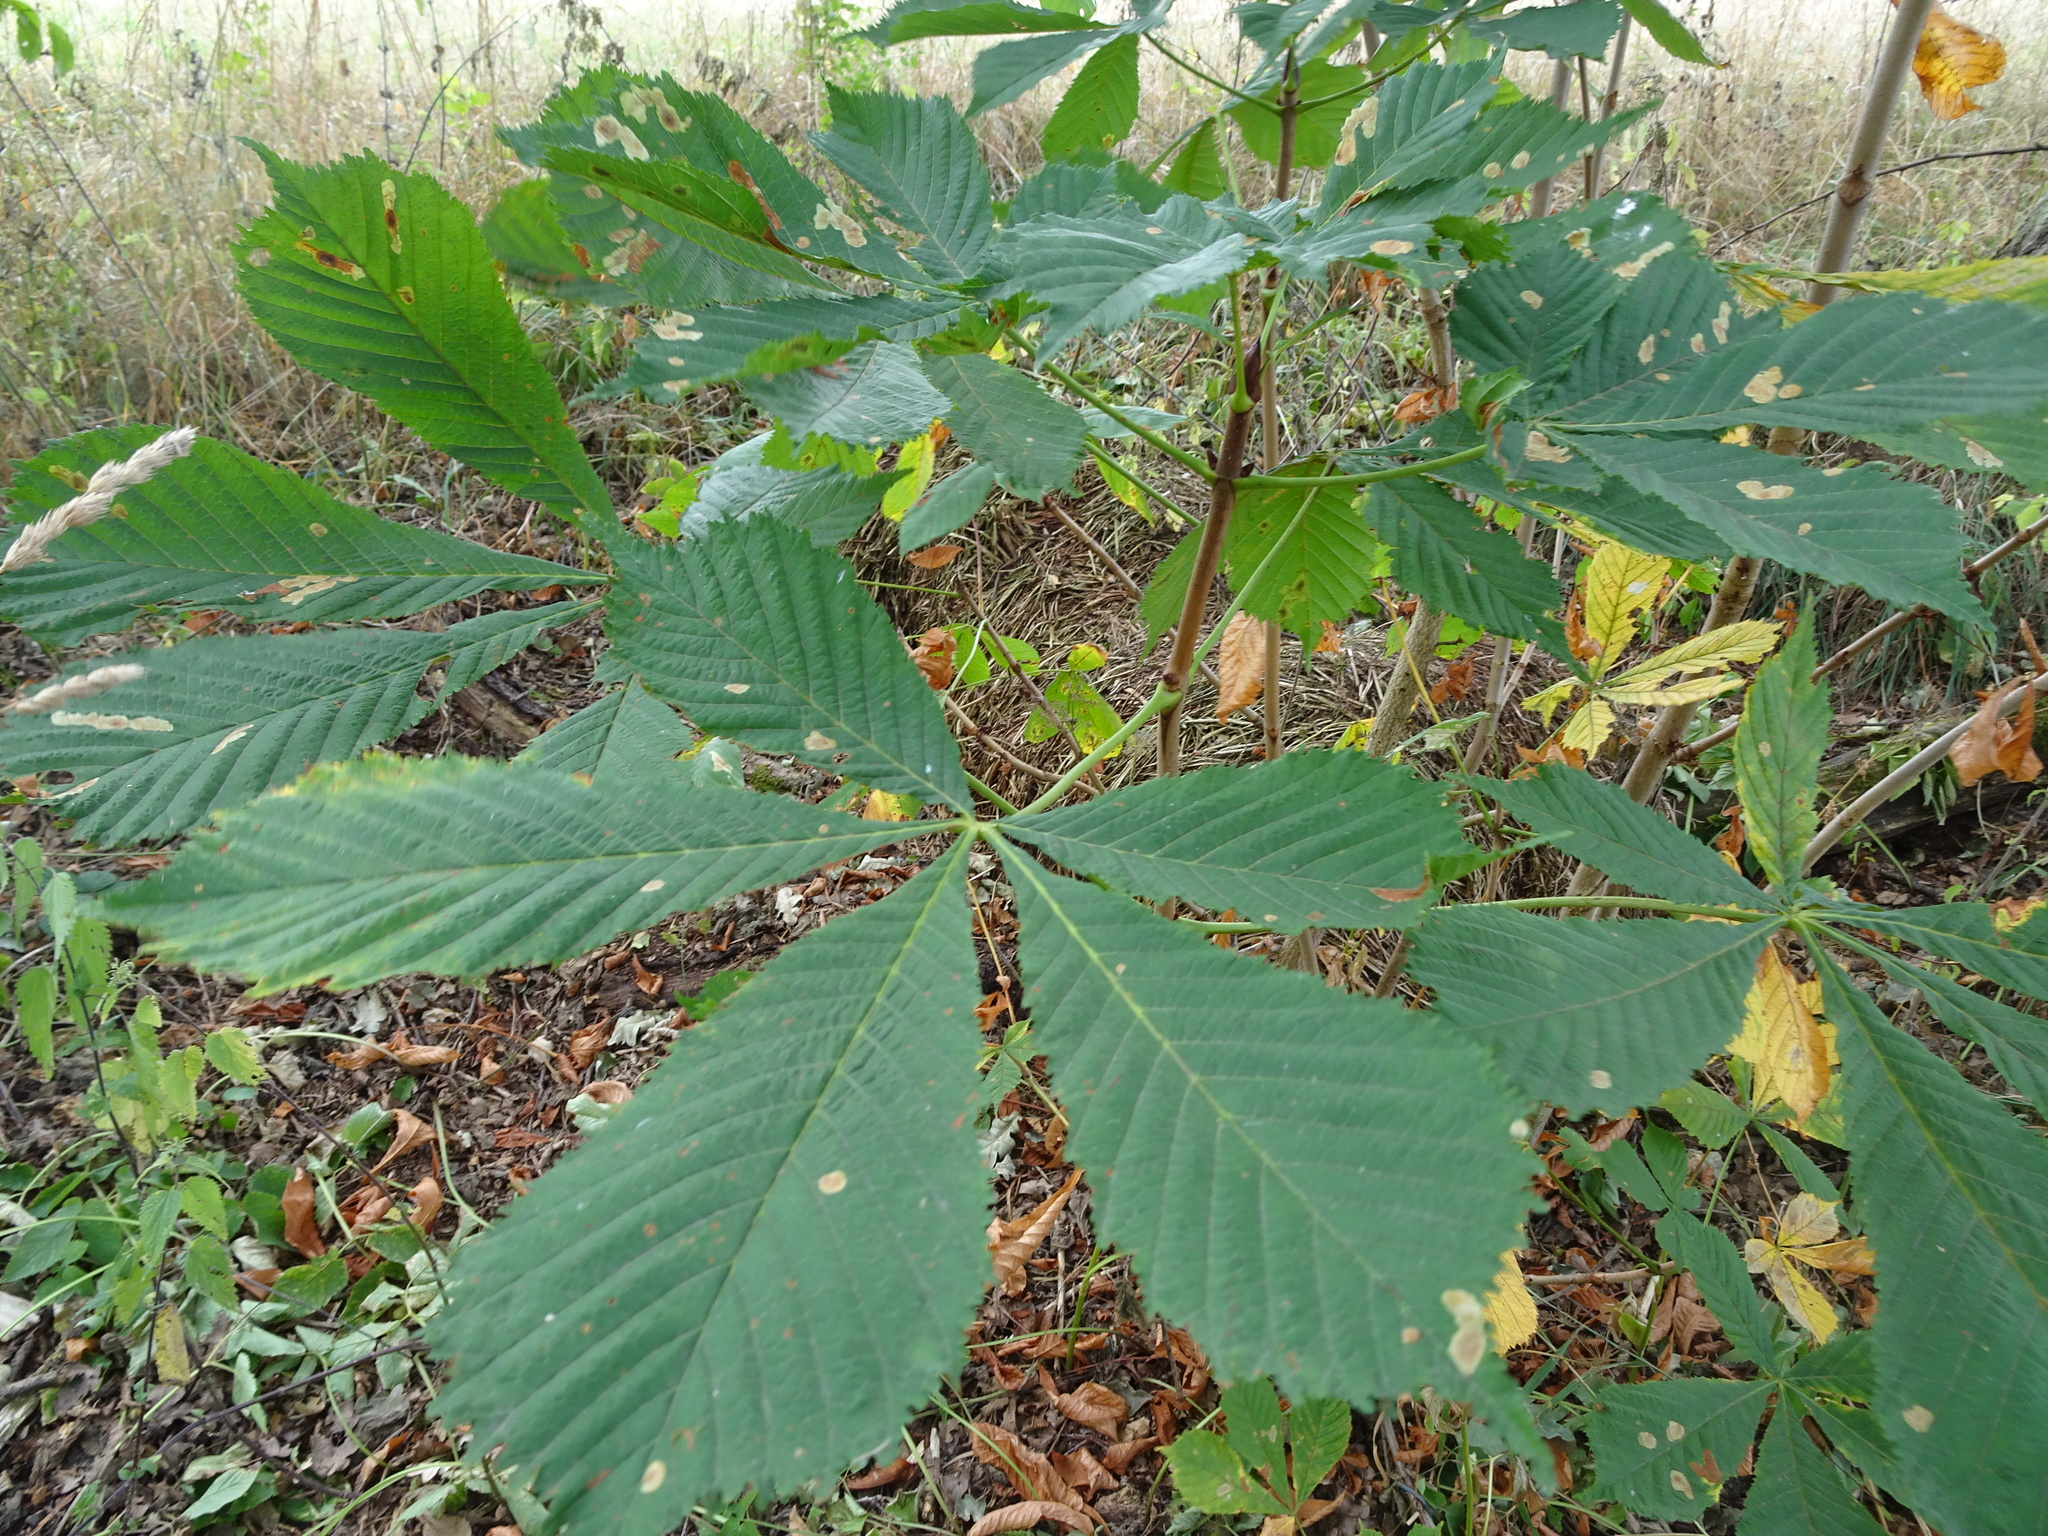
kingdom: Plantae
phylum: Tracheophyta
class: Magnoliopsida
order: Sapindales
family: Sapindaceae
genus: Aesculus
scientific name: Aesculus hippocastanum
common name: Horse-chestnut
